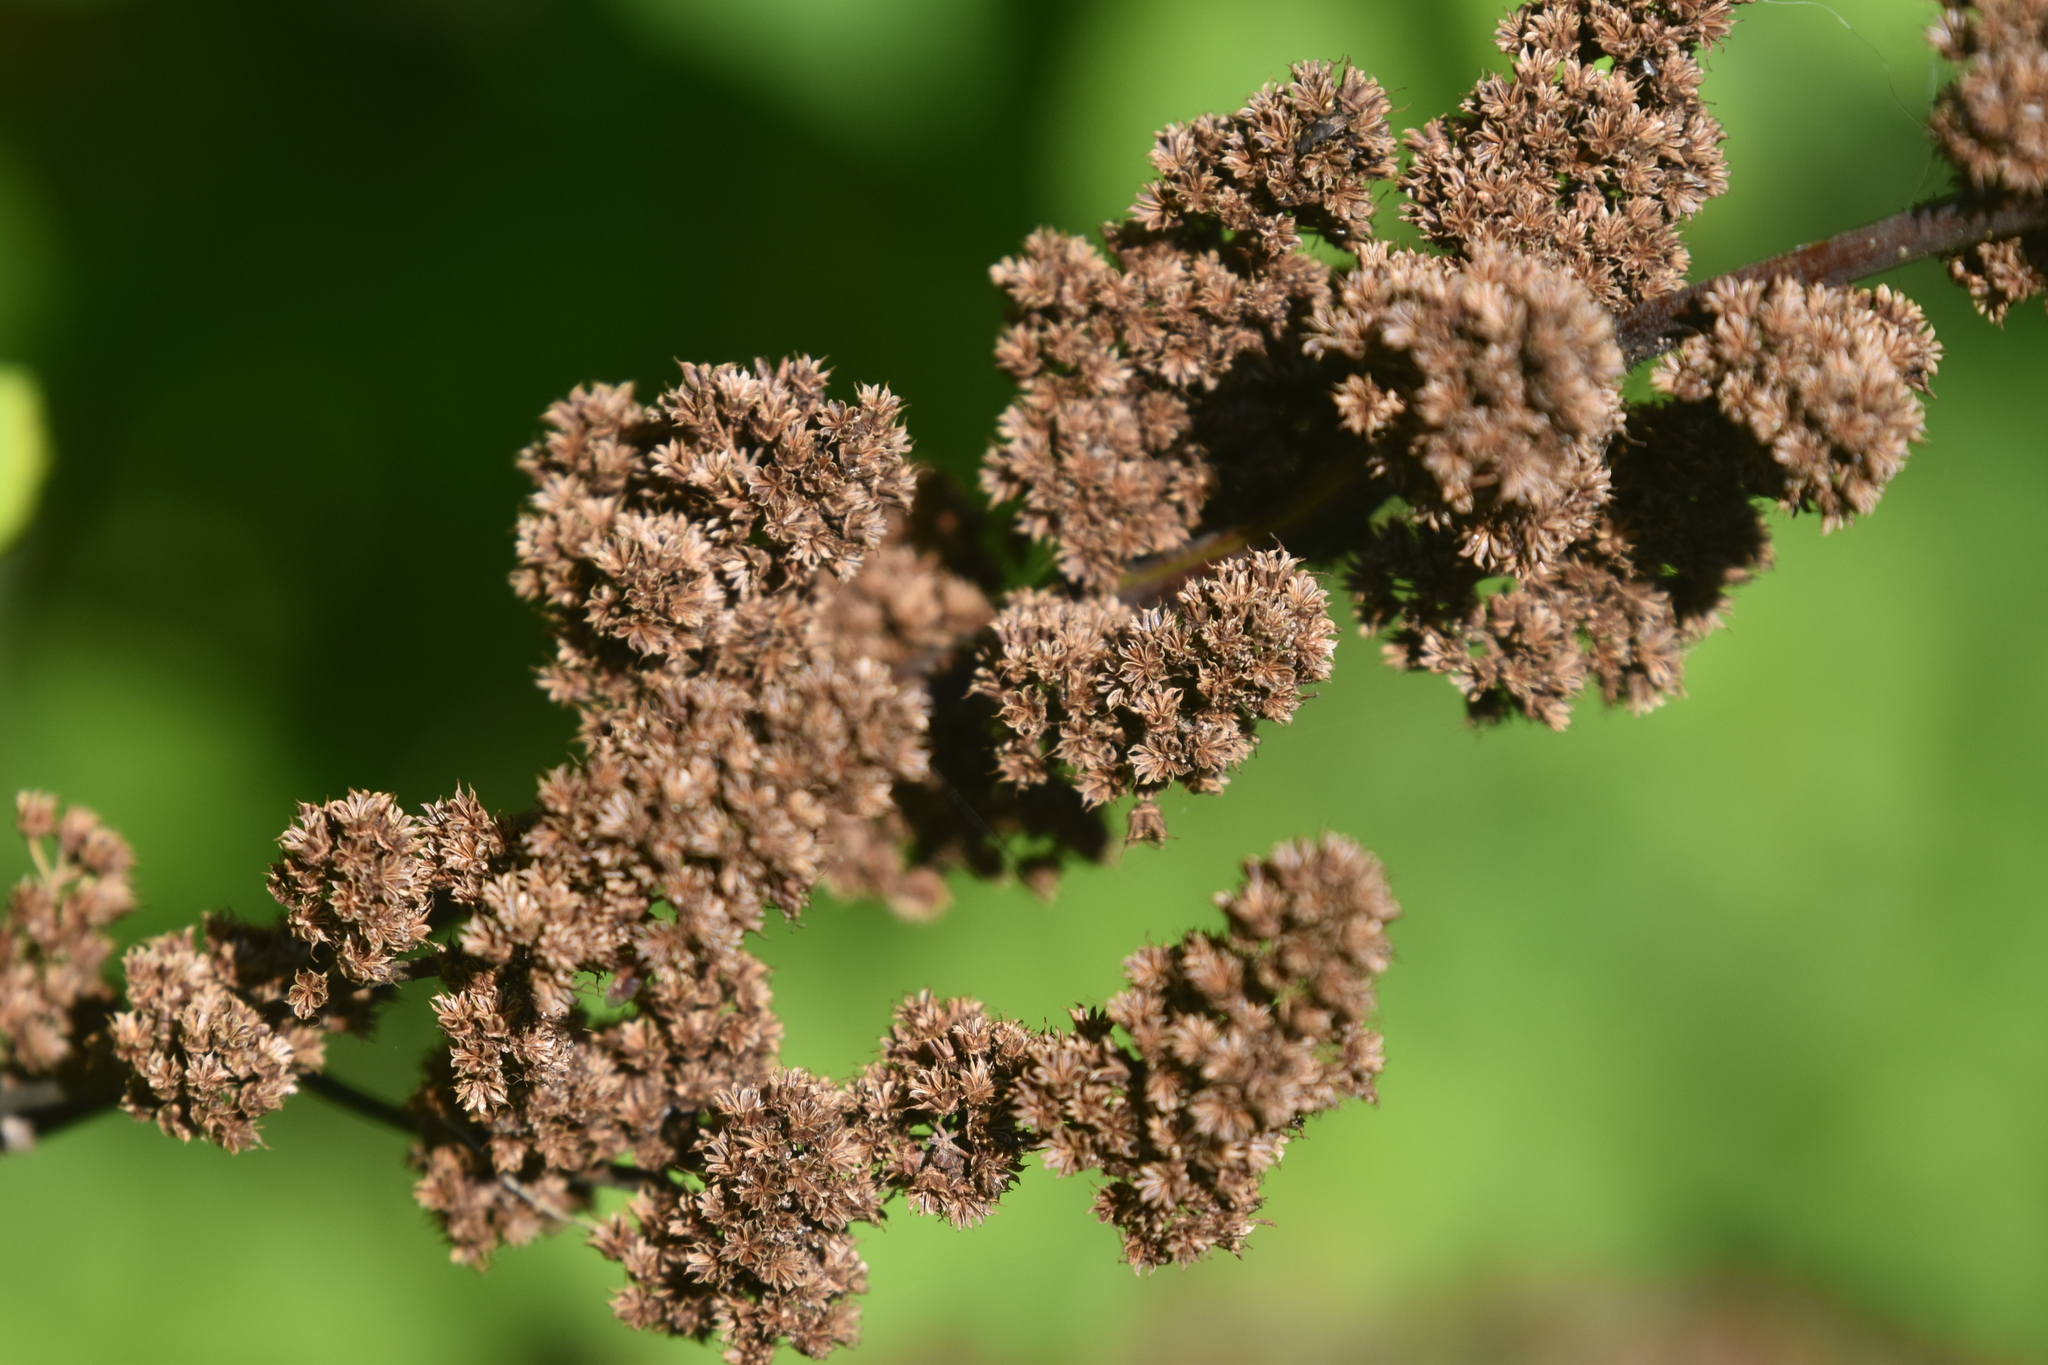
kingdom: Plantae
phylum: Tracheophyta
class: Magnoliopsida
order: Rosales
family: Rosaceae
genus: Spiraea
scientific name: Spiraea douglasii
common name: Steeplebush
